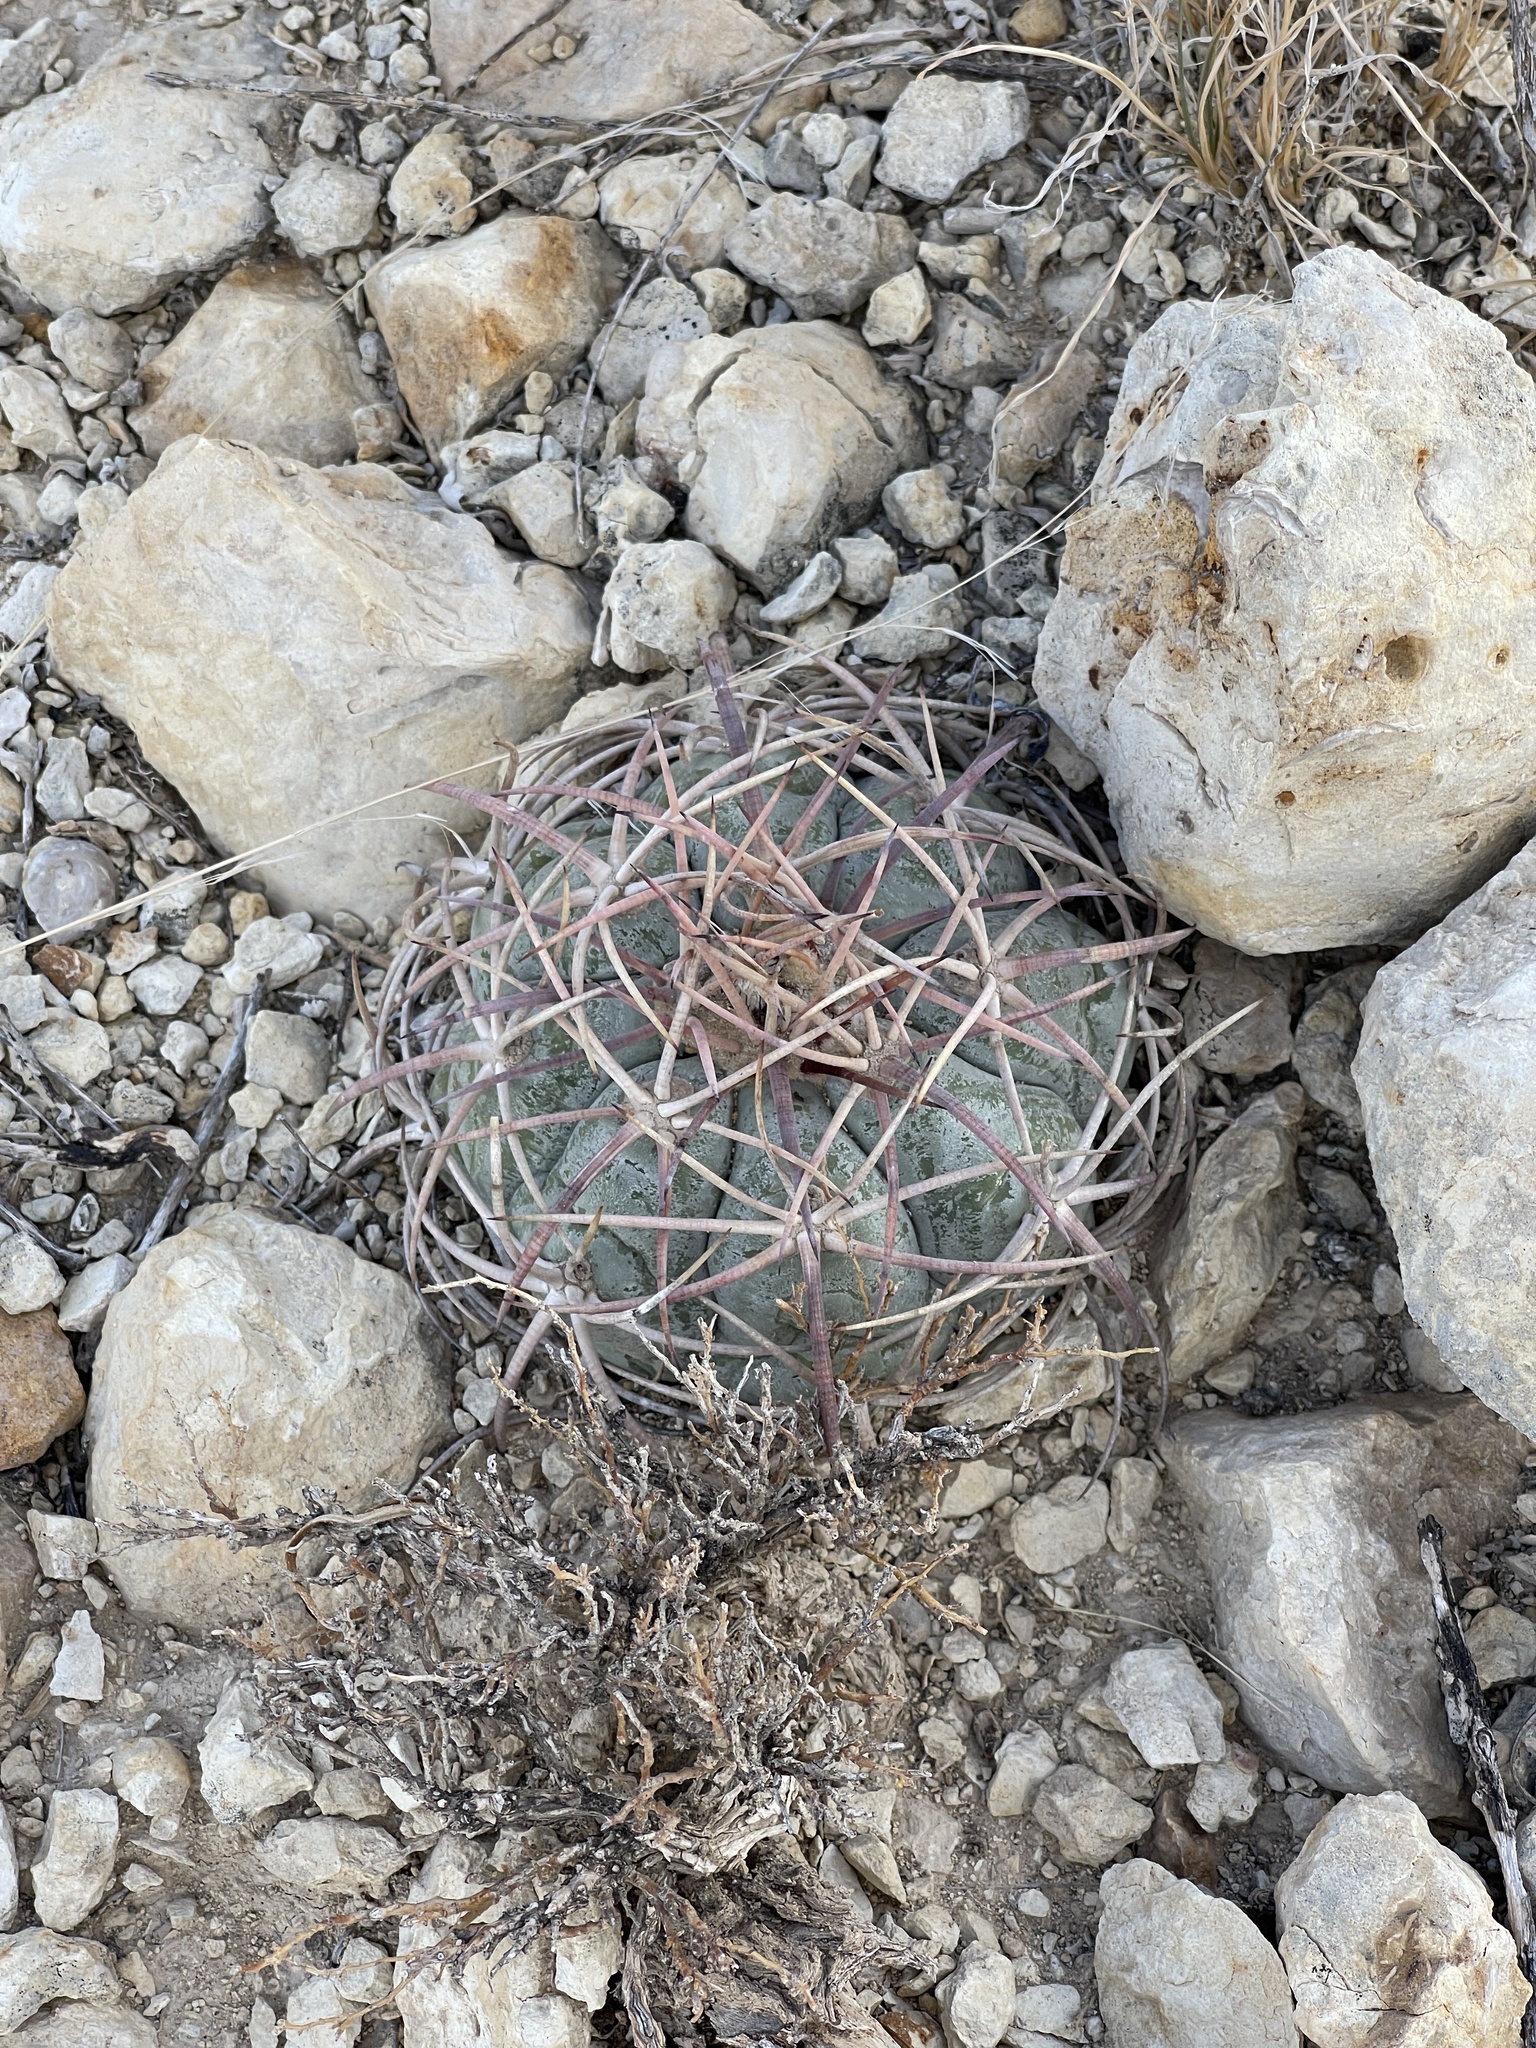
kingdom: Plantae
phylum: Tracheophyta
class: Magnoliopsida
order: Caryophyllales
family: Cactaceae
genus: Echinocactus
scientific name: Echinocactus horizonthalonius
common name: Devilshead
